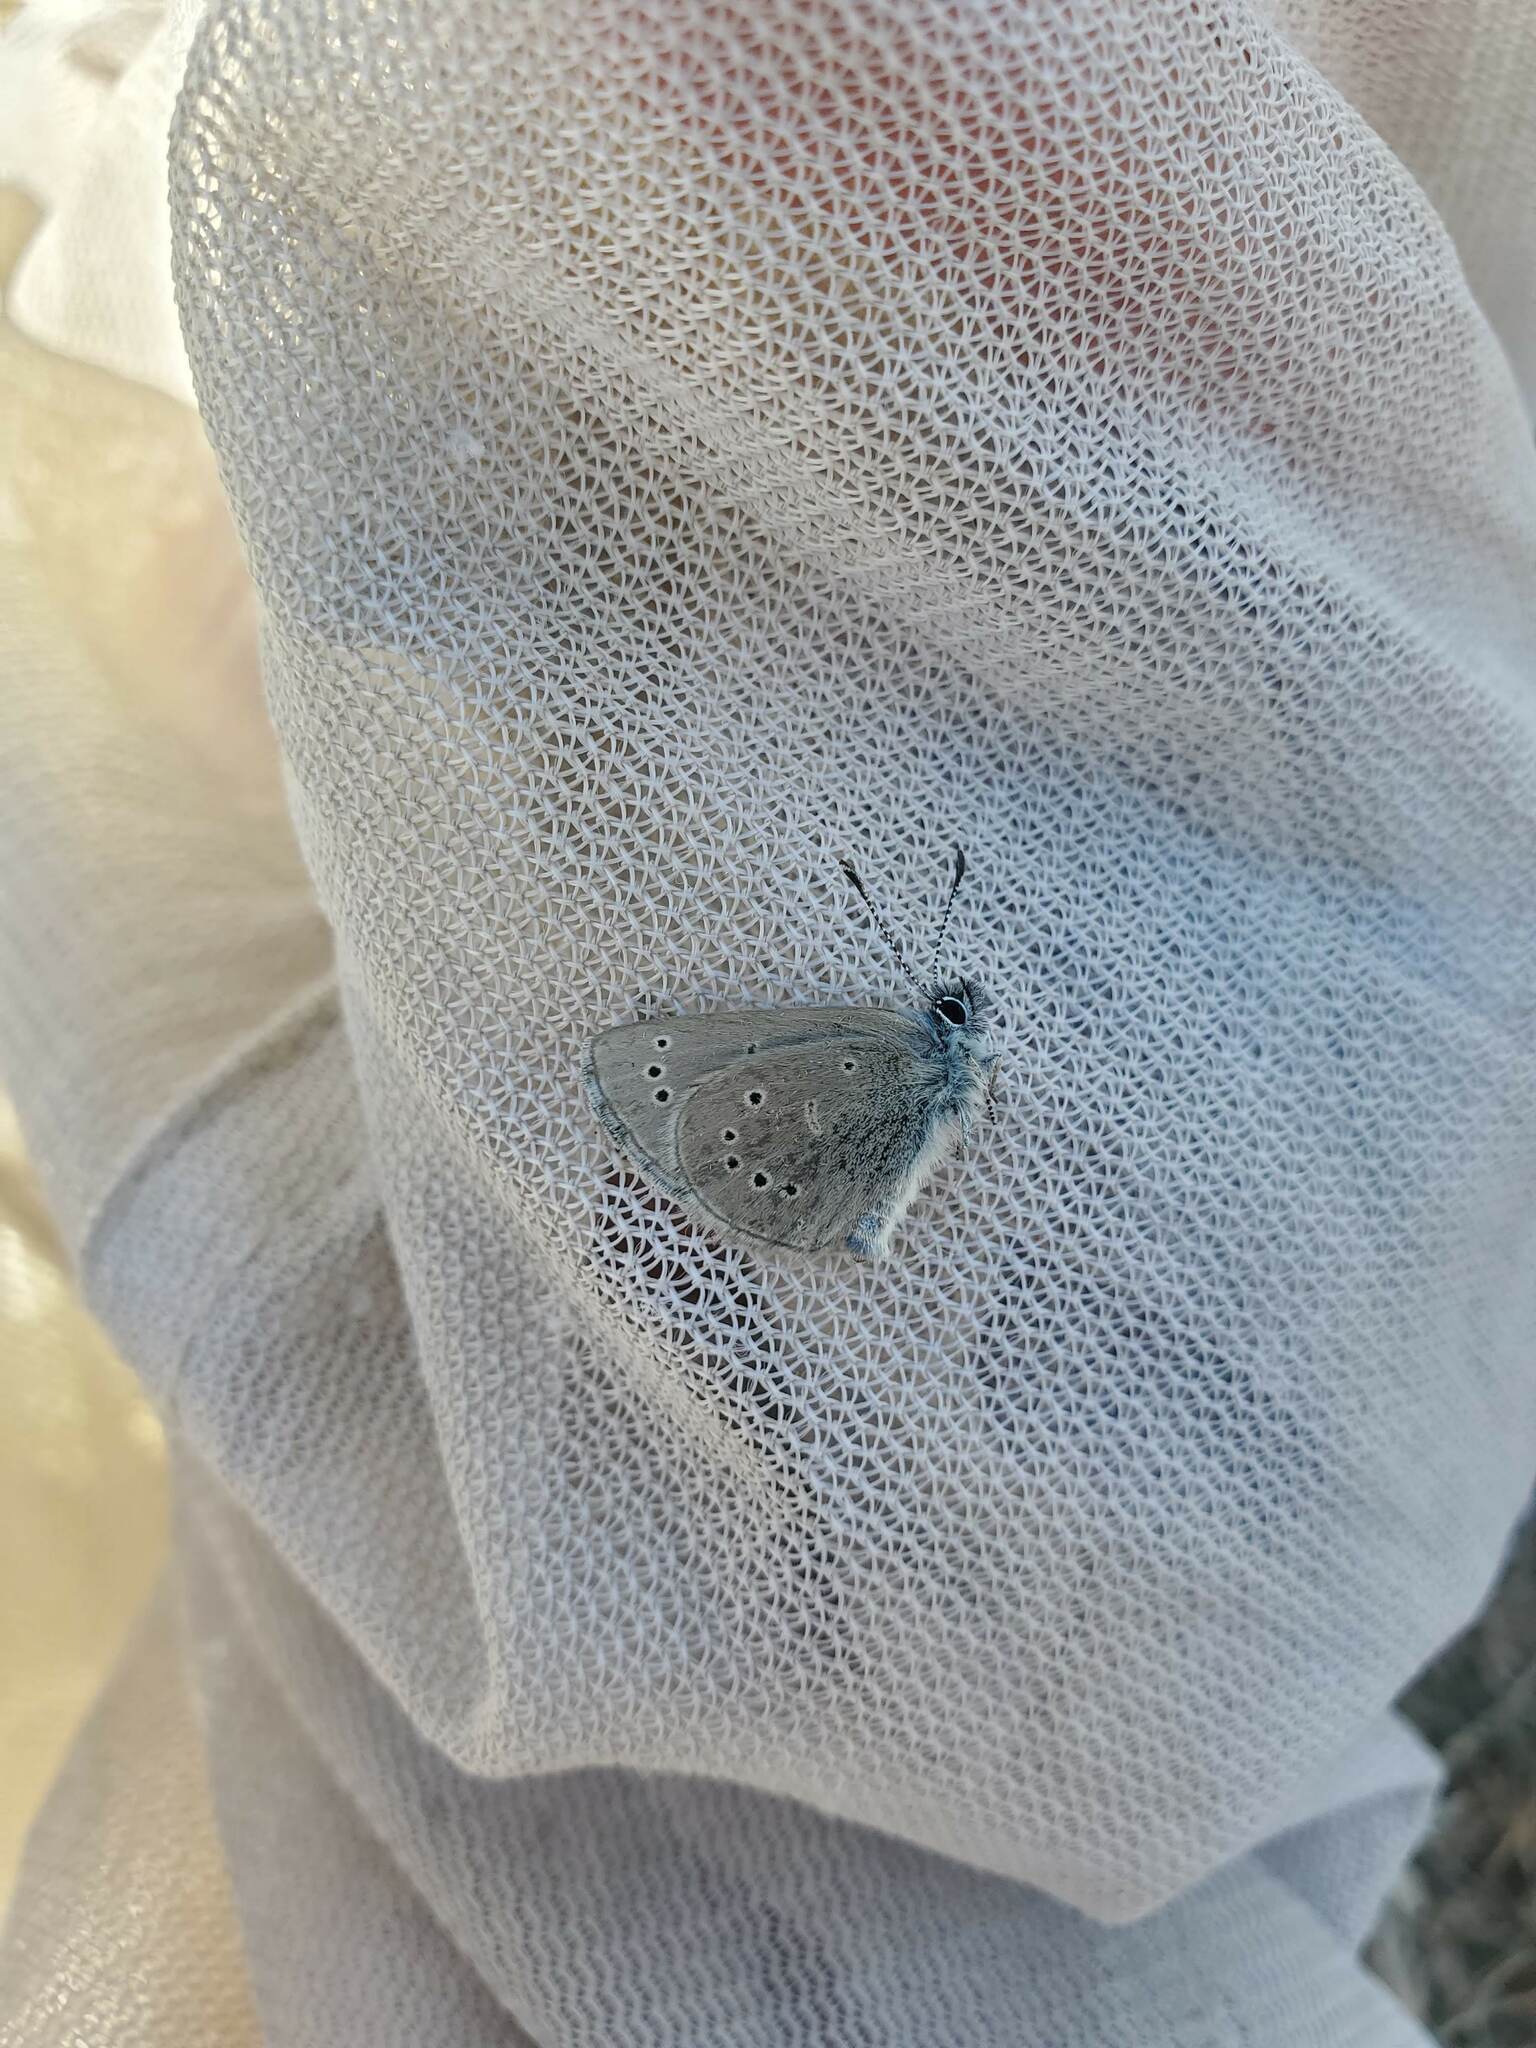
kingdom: Animalia
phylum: Arthropoda
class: Insecta
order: Lepidoptera
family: Lycaenidae
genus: Glaucopsyche
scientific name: Glaucopsyche lygdamus
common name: Silvery blue
